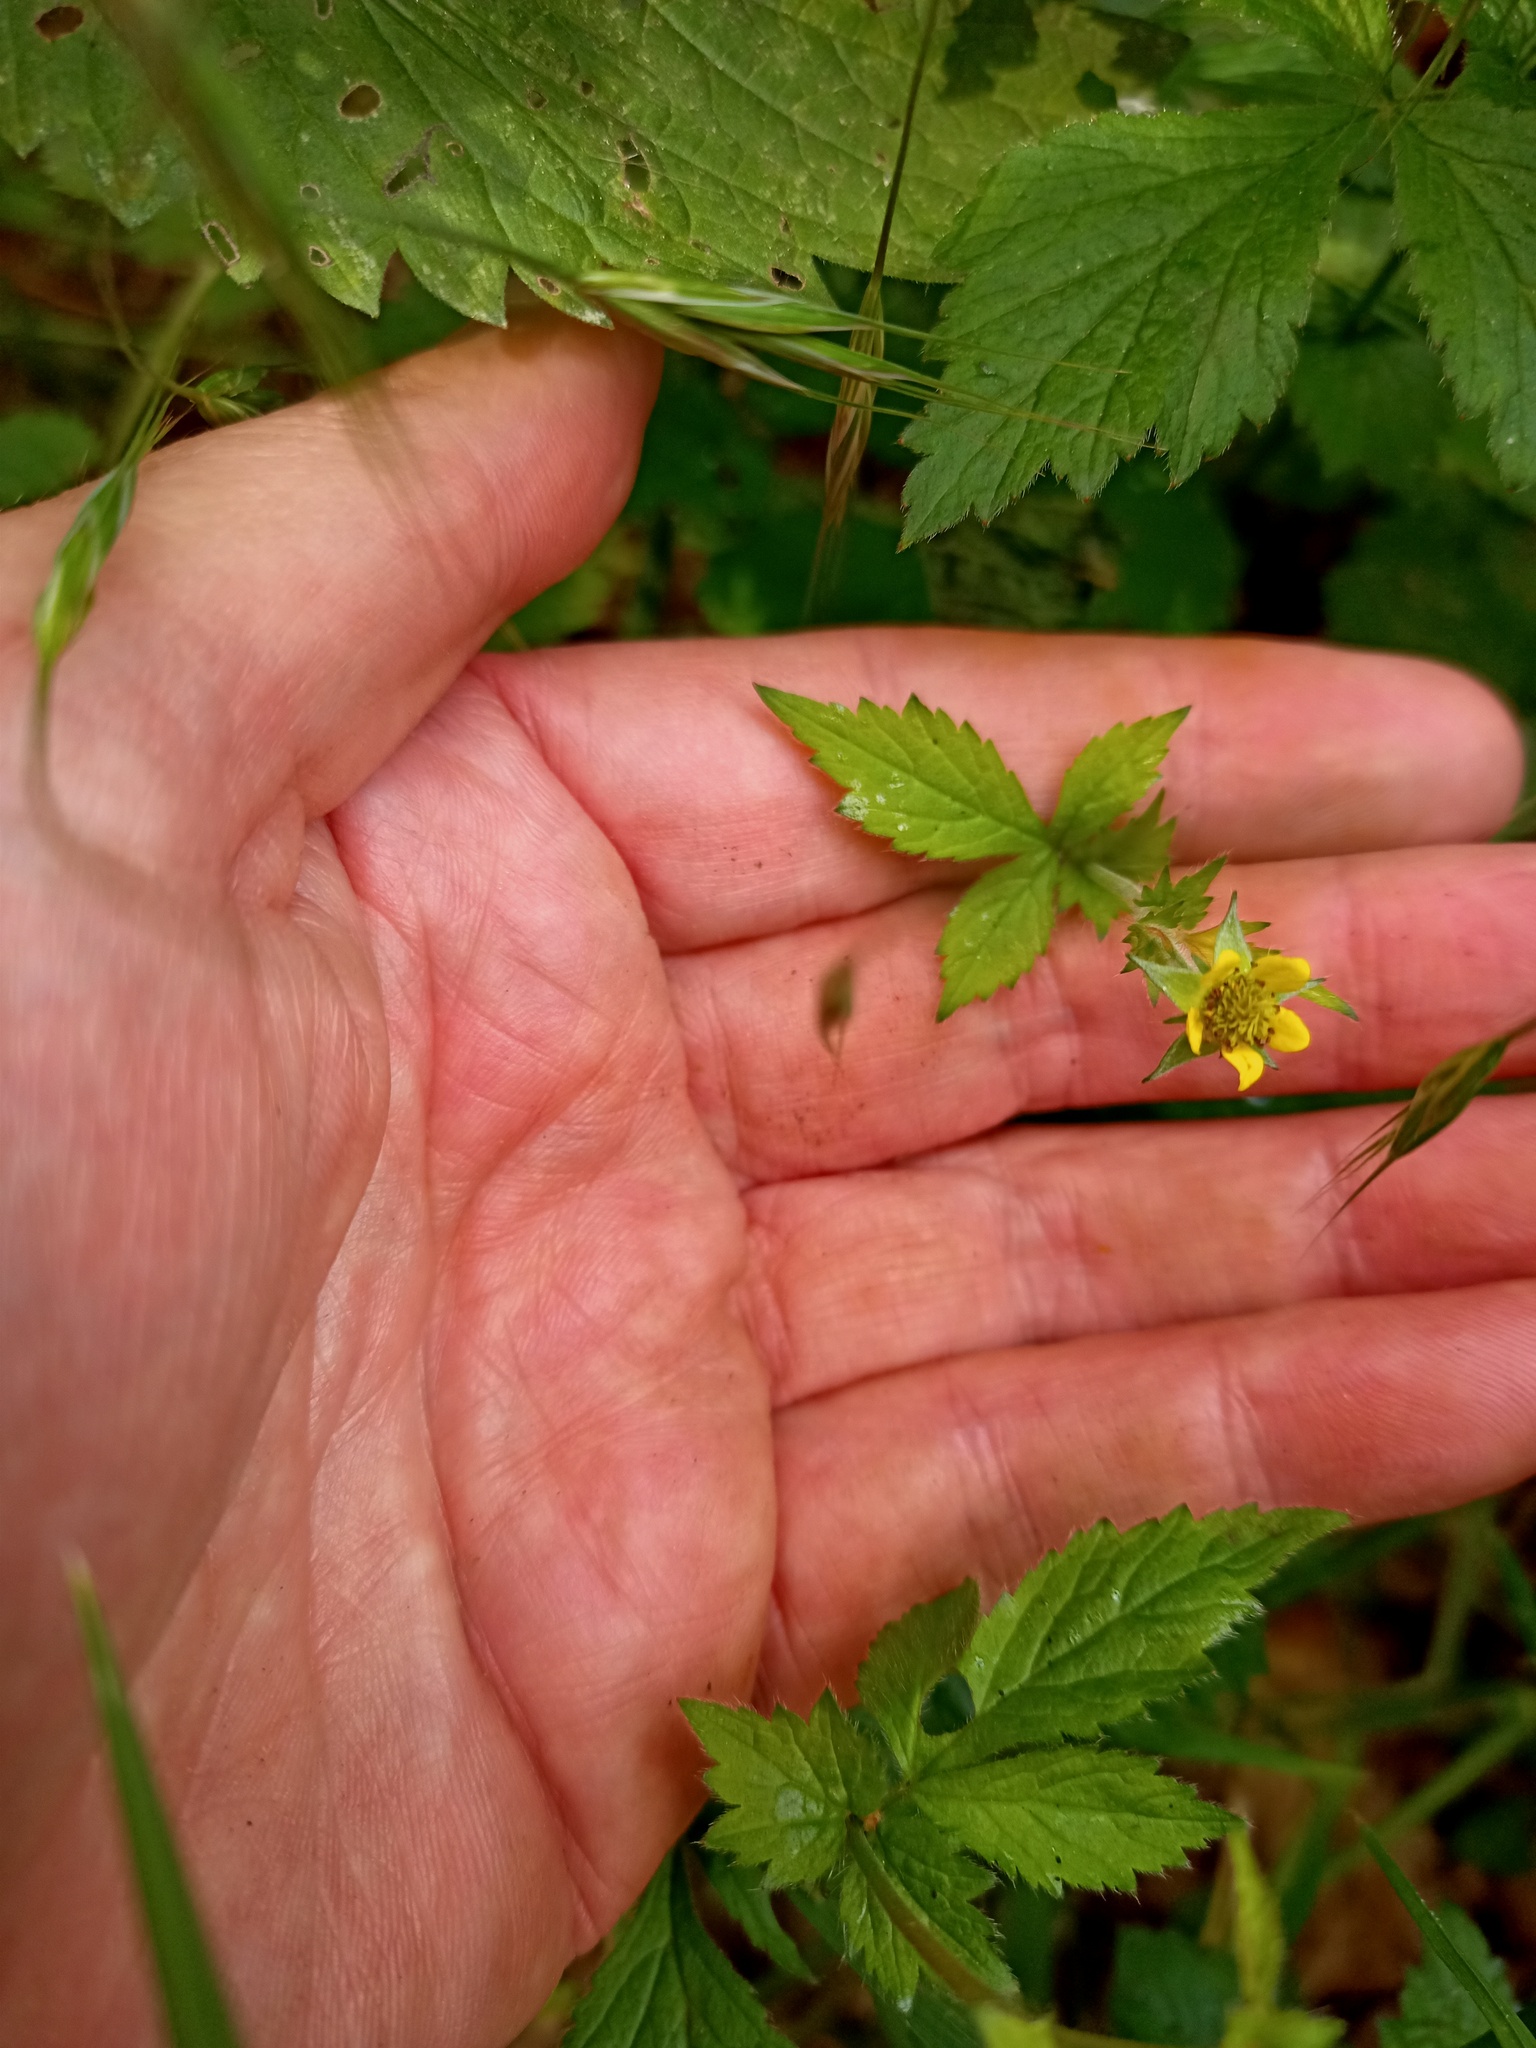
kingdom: Plantae
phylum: Tracheophyta
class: Magnoliopsida
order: Rosales
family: Rosaceae
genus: Geum
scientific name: Geum urbanum
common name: Wood avens
